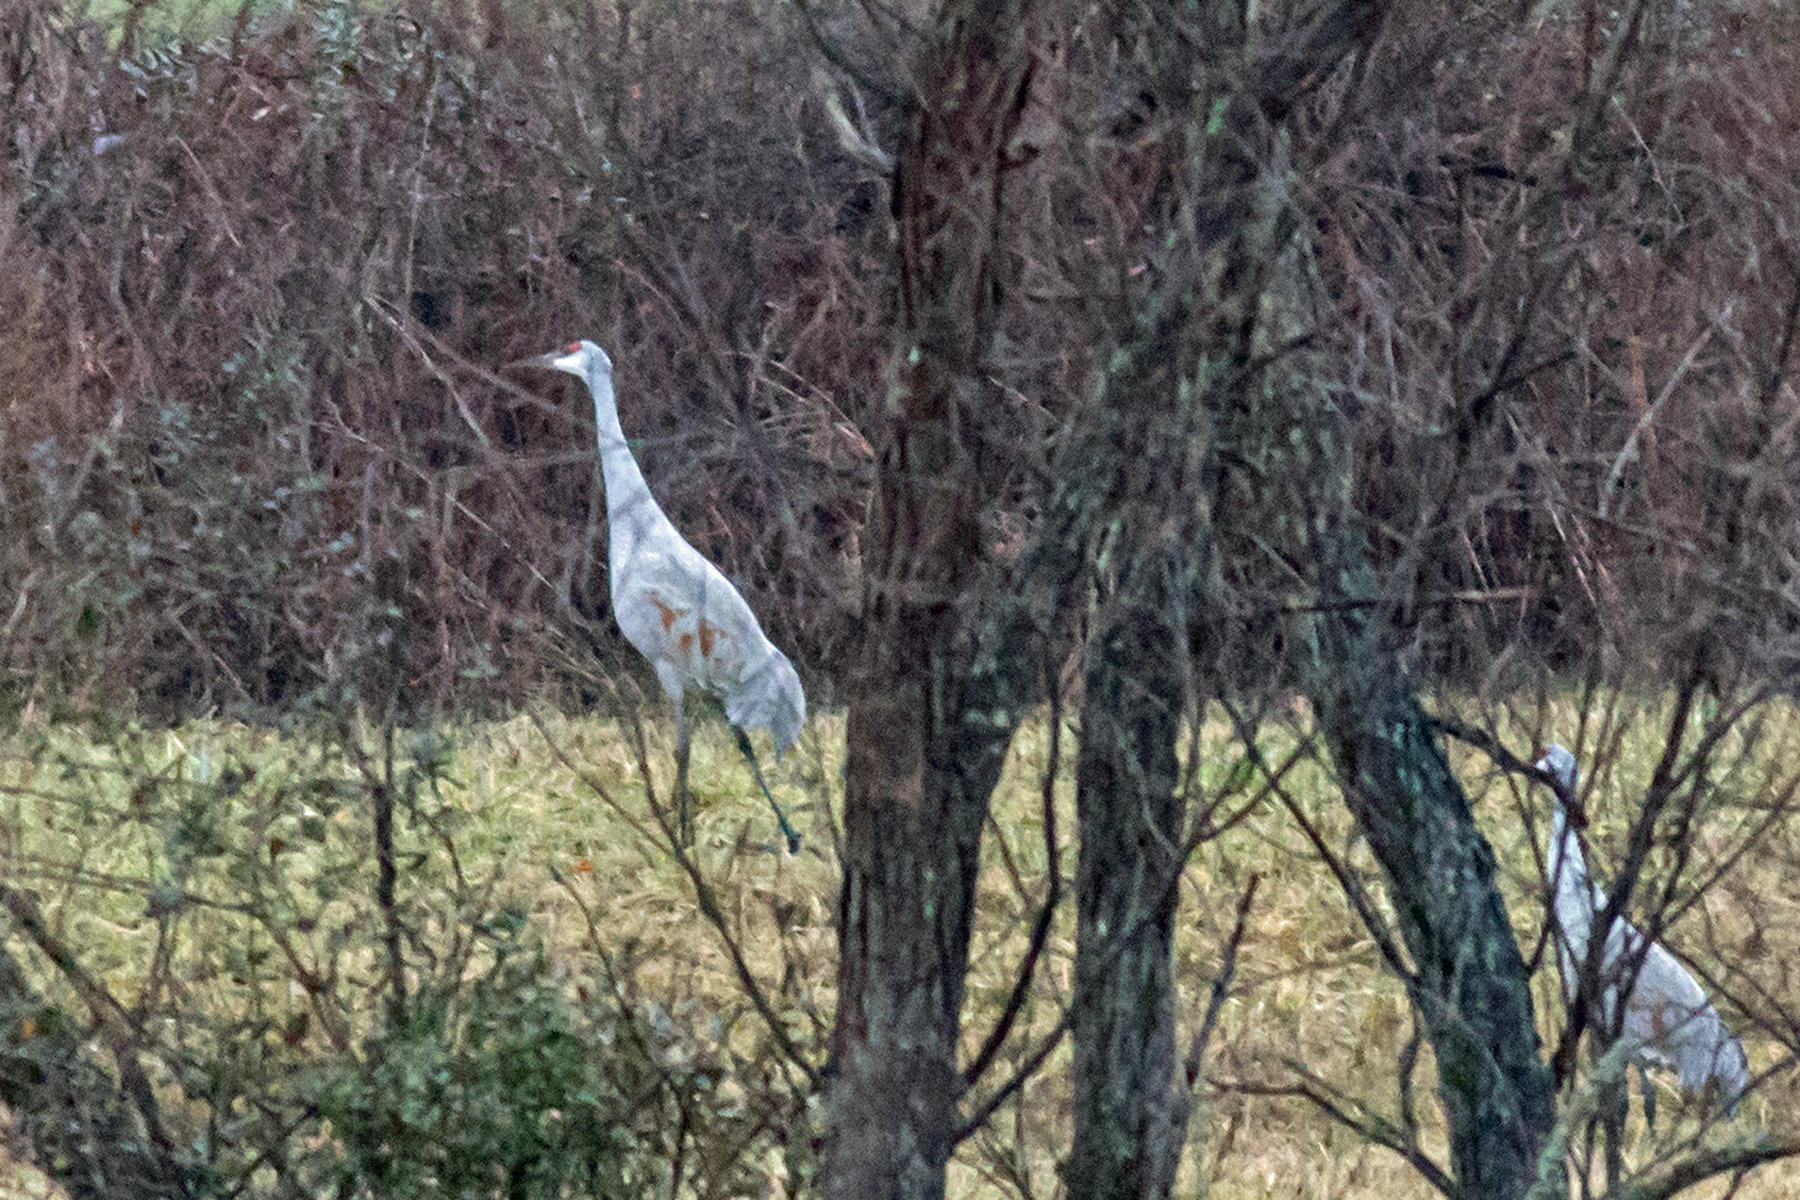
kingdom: Animalia
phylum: Chordata
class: Aves
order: Gruiformes
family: Gruidae
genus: Grus
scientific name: Grus canadensis
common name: Sandhill crane
